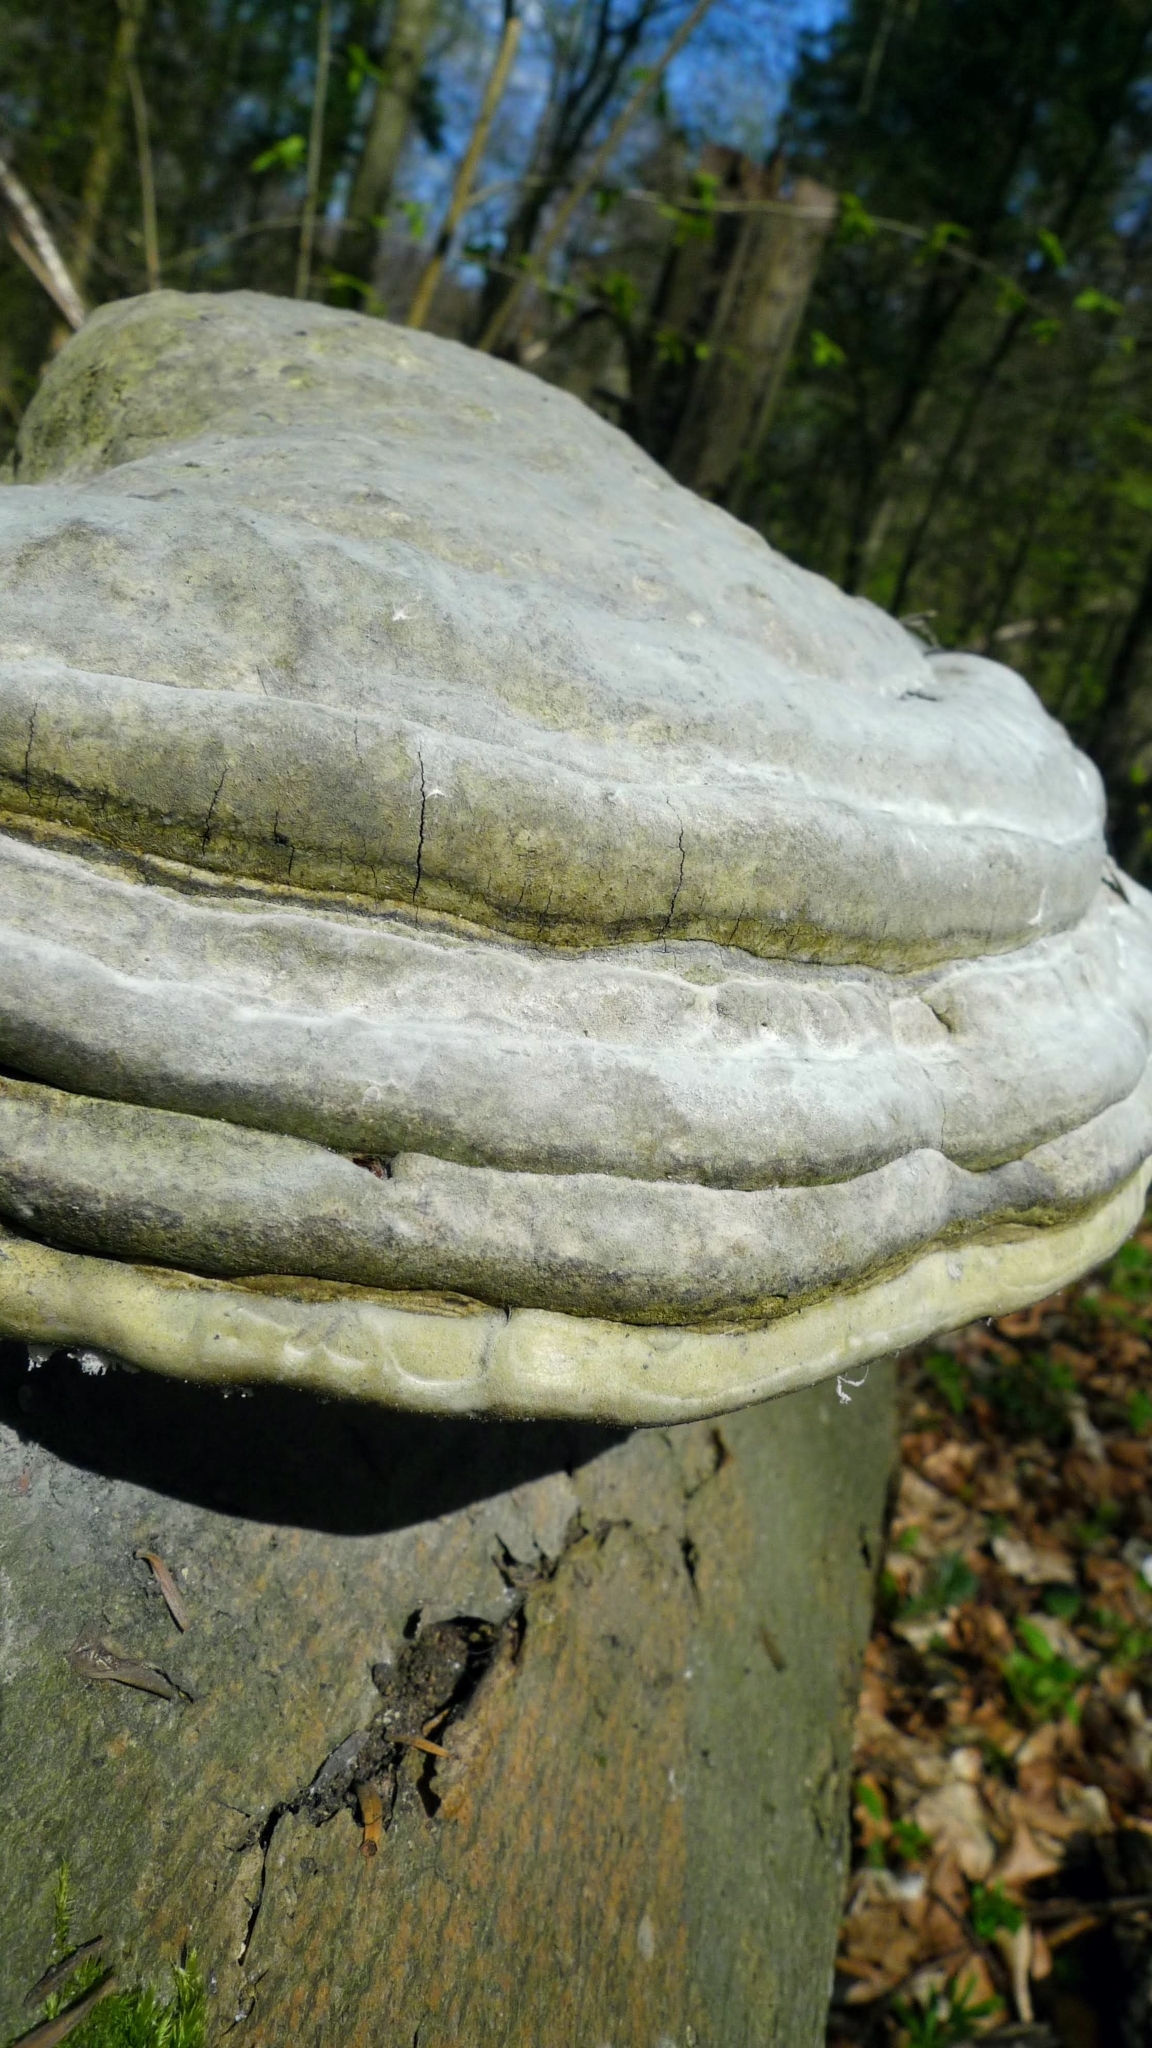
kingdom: Fungi
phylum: Basidiomycota
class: Agaricomycetes
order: Polyporales
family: Polyporaceae
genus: Fomes
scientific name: Fomes fomentarius
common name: Hoof fungus
